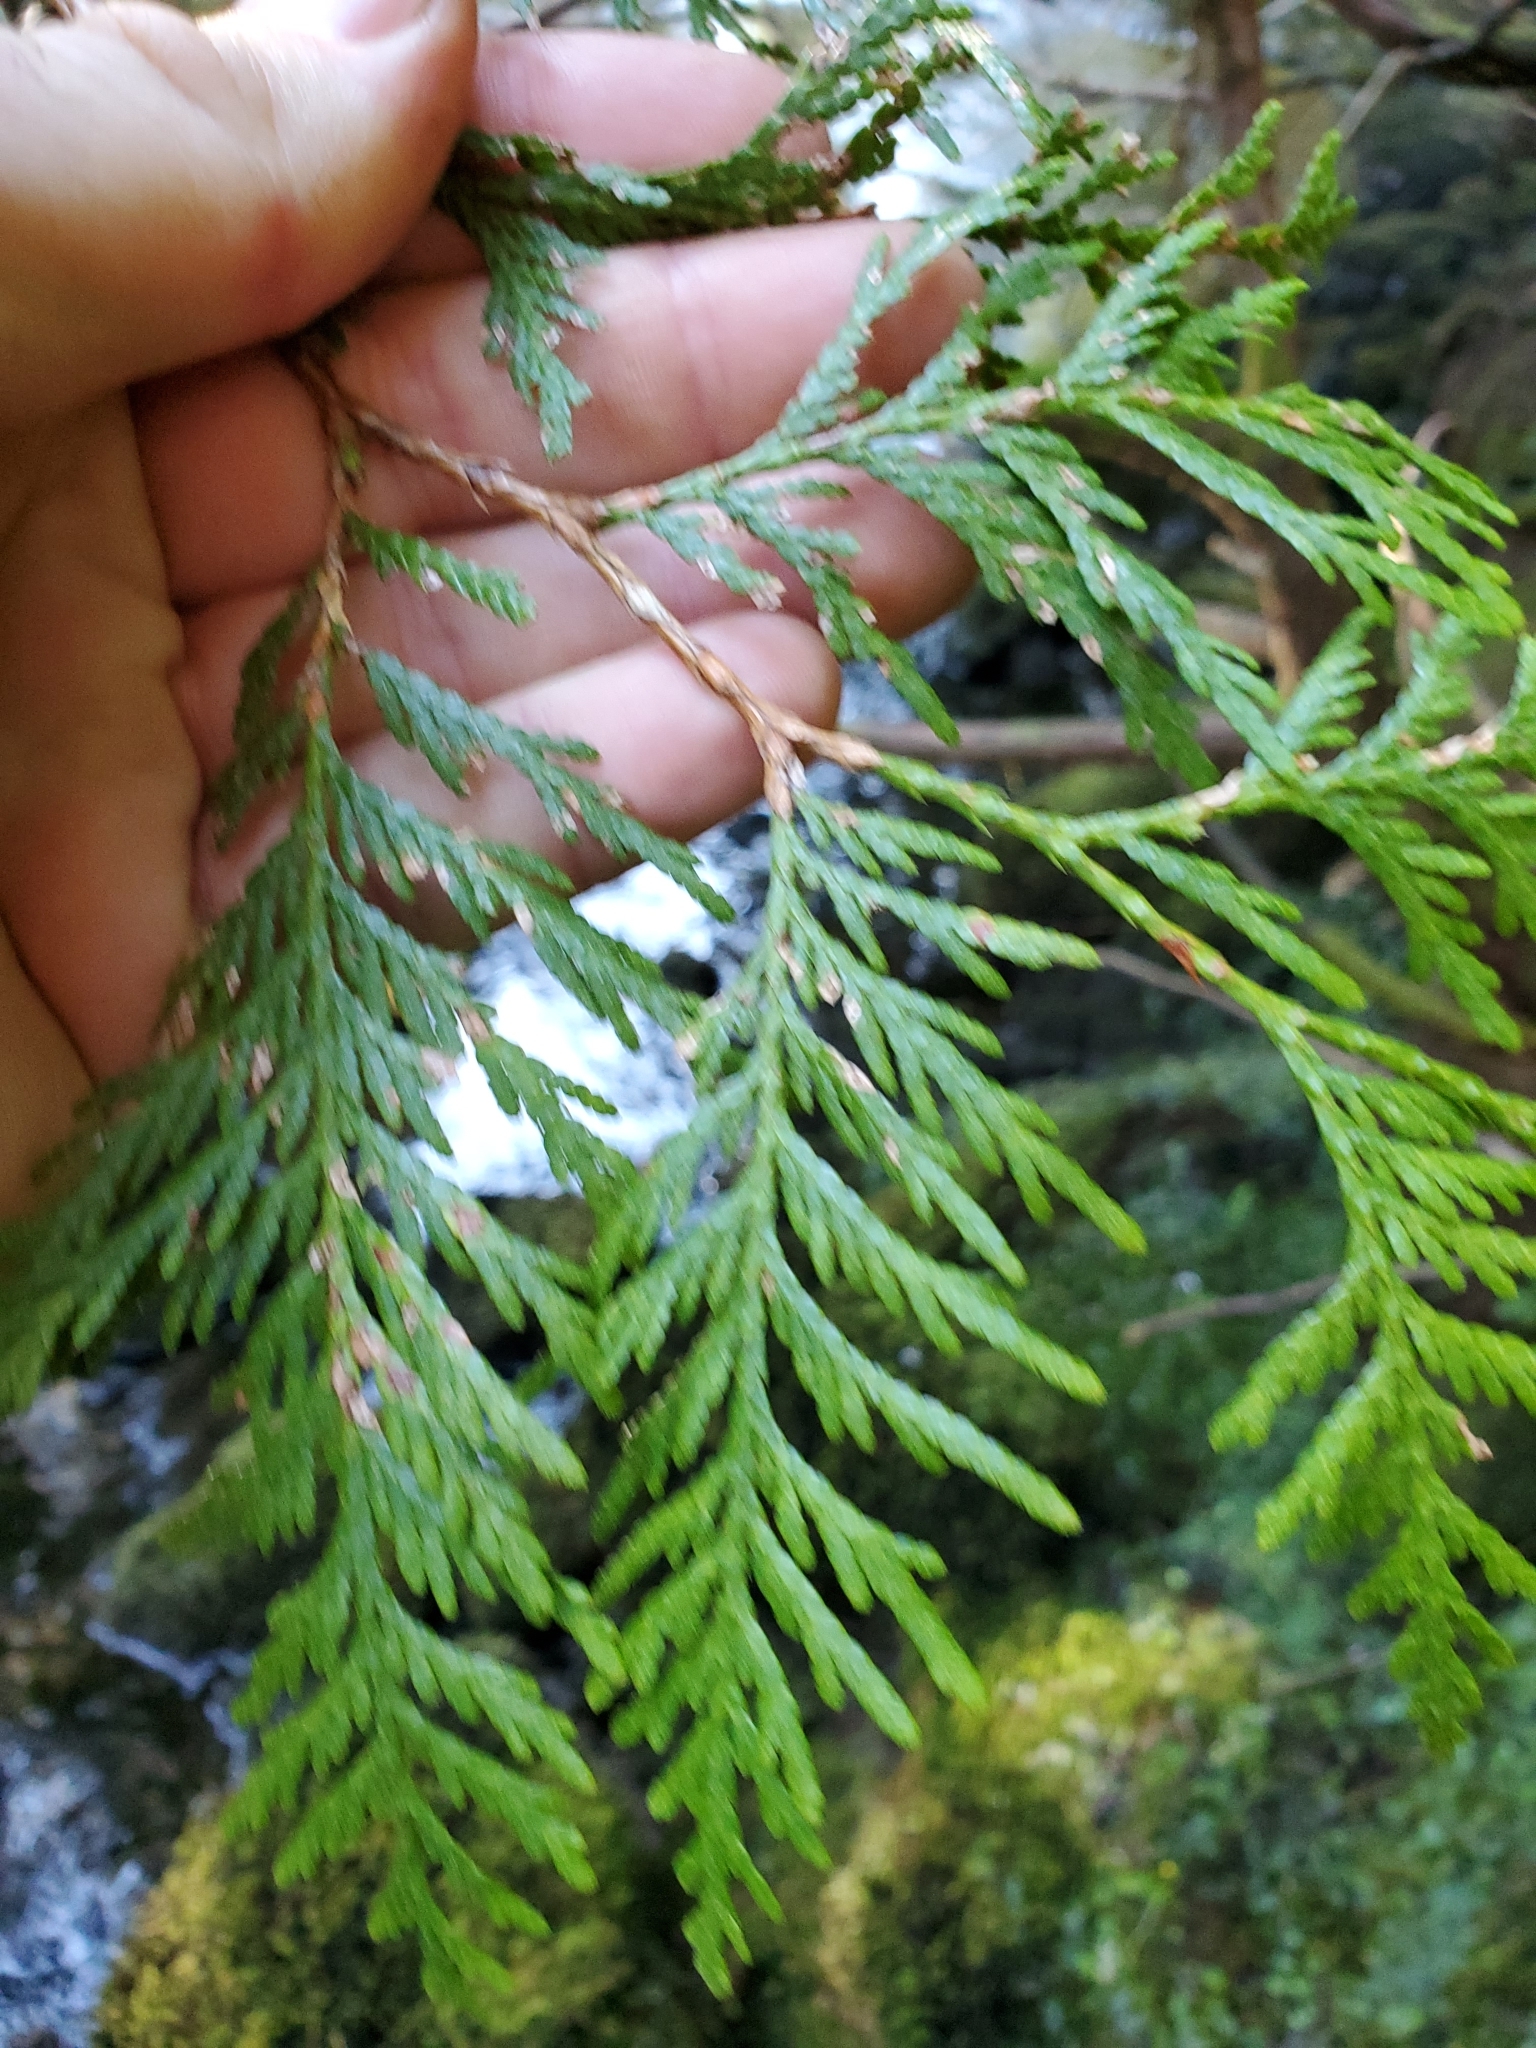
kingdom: Plantae
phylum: Tracheophyta
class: Pinopsida
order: Pinales
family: Cupressaceae
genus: Thuja
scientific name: Thuja plicata
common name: Western red-cedar
